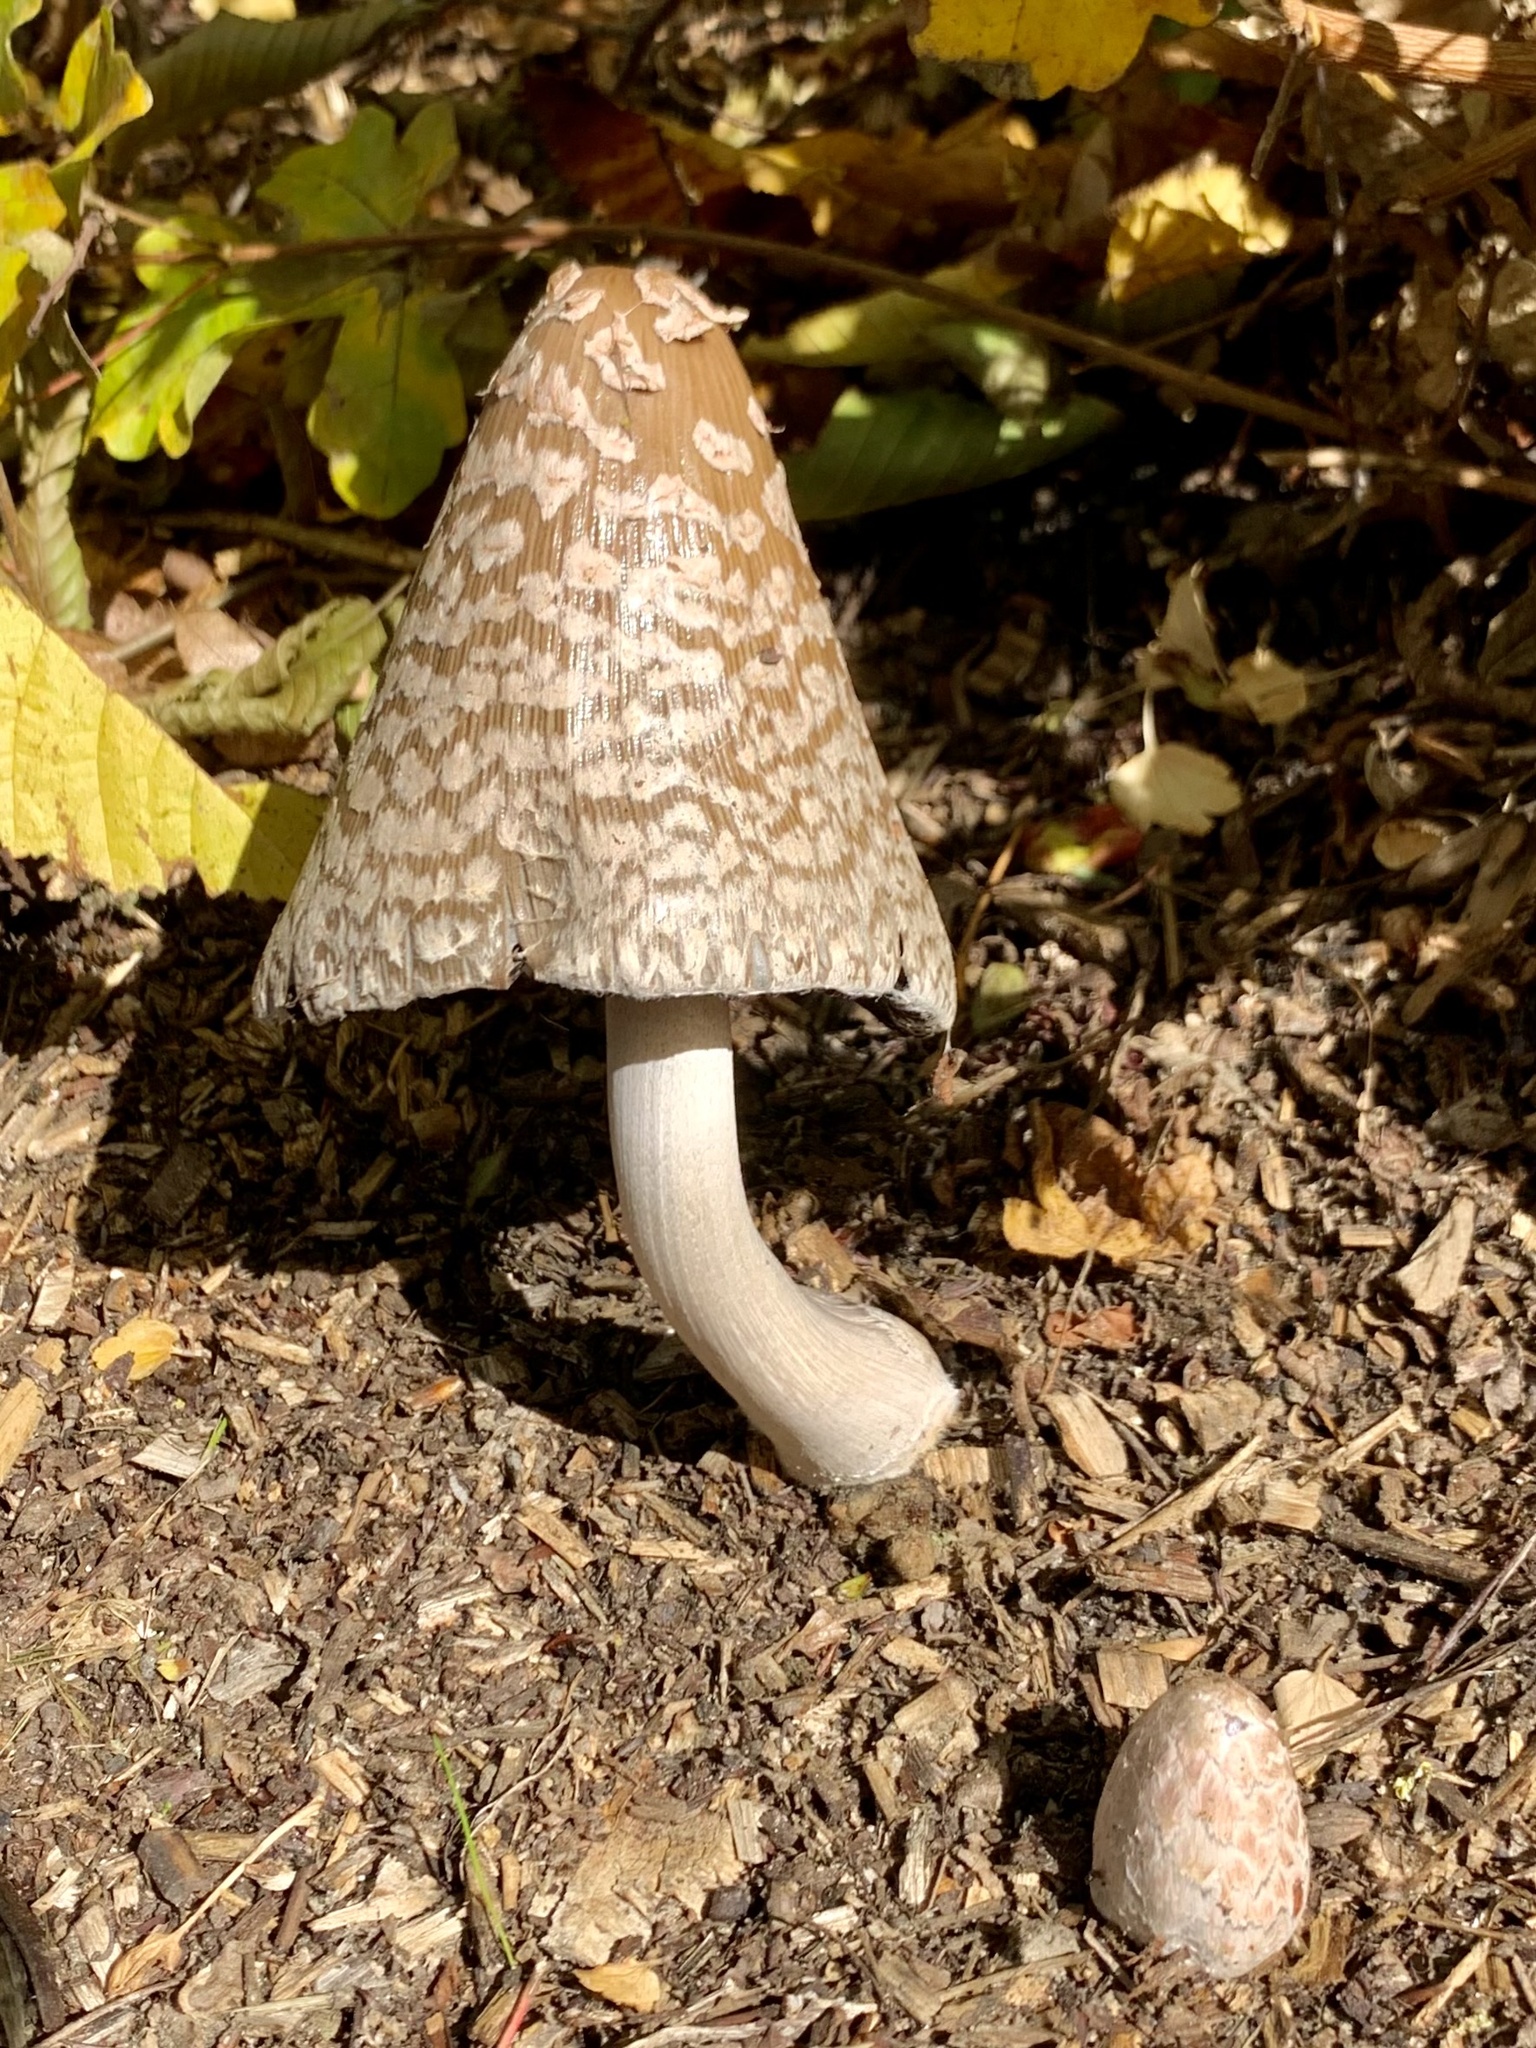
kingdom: Fungi
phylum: Basidiomycota
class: Agaricomycetes
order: Agaricales
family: Psathyrellaceae
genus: Coprinopsis
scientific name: Coprinopsis picacea
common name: Magpie inkcap
